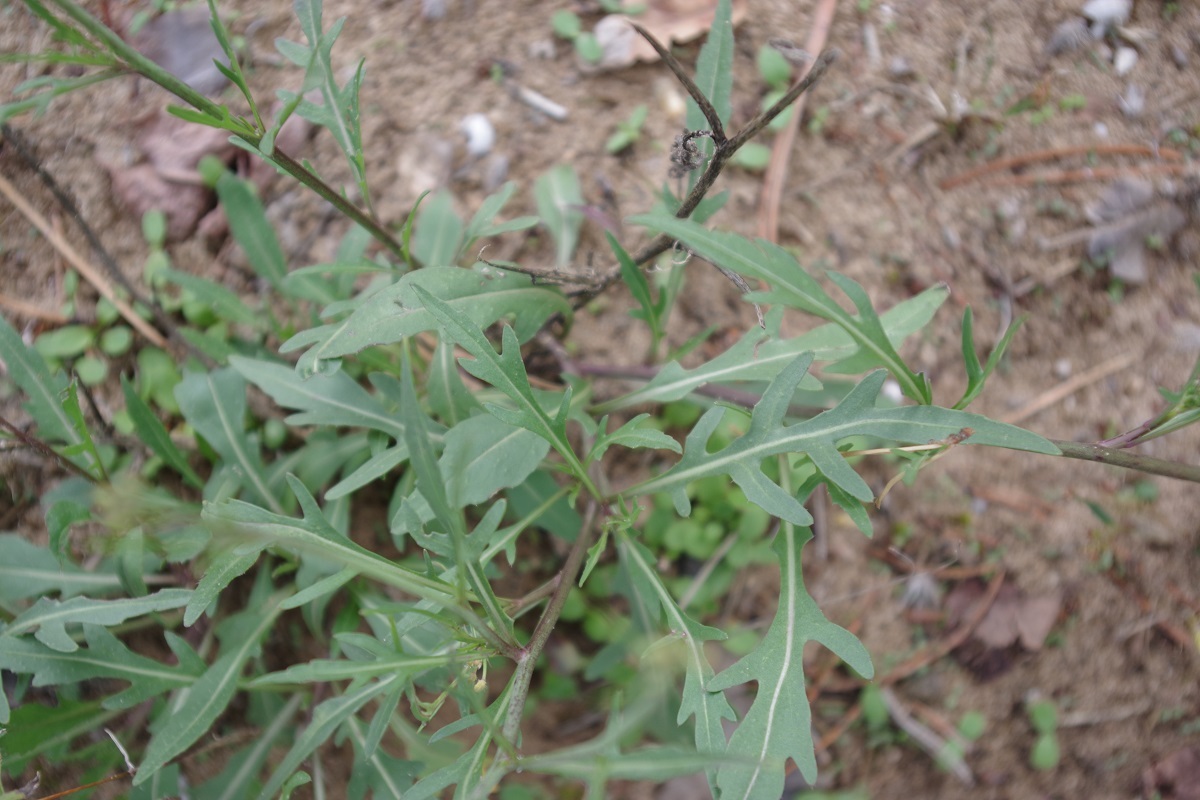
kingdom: Plantae
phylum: Tracheophyta
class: Magnoliopsida
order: Brassicales
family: Brassicaceae
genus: Diplotaxis
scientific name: Diplotaxis tenuifolia
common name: Perennial wall-rocket
